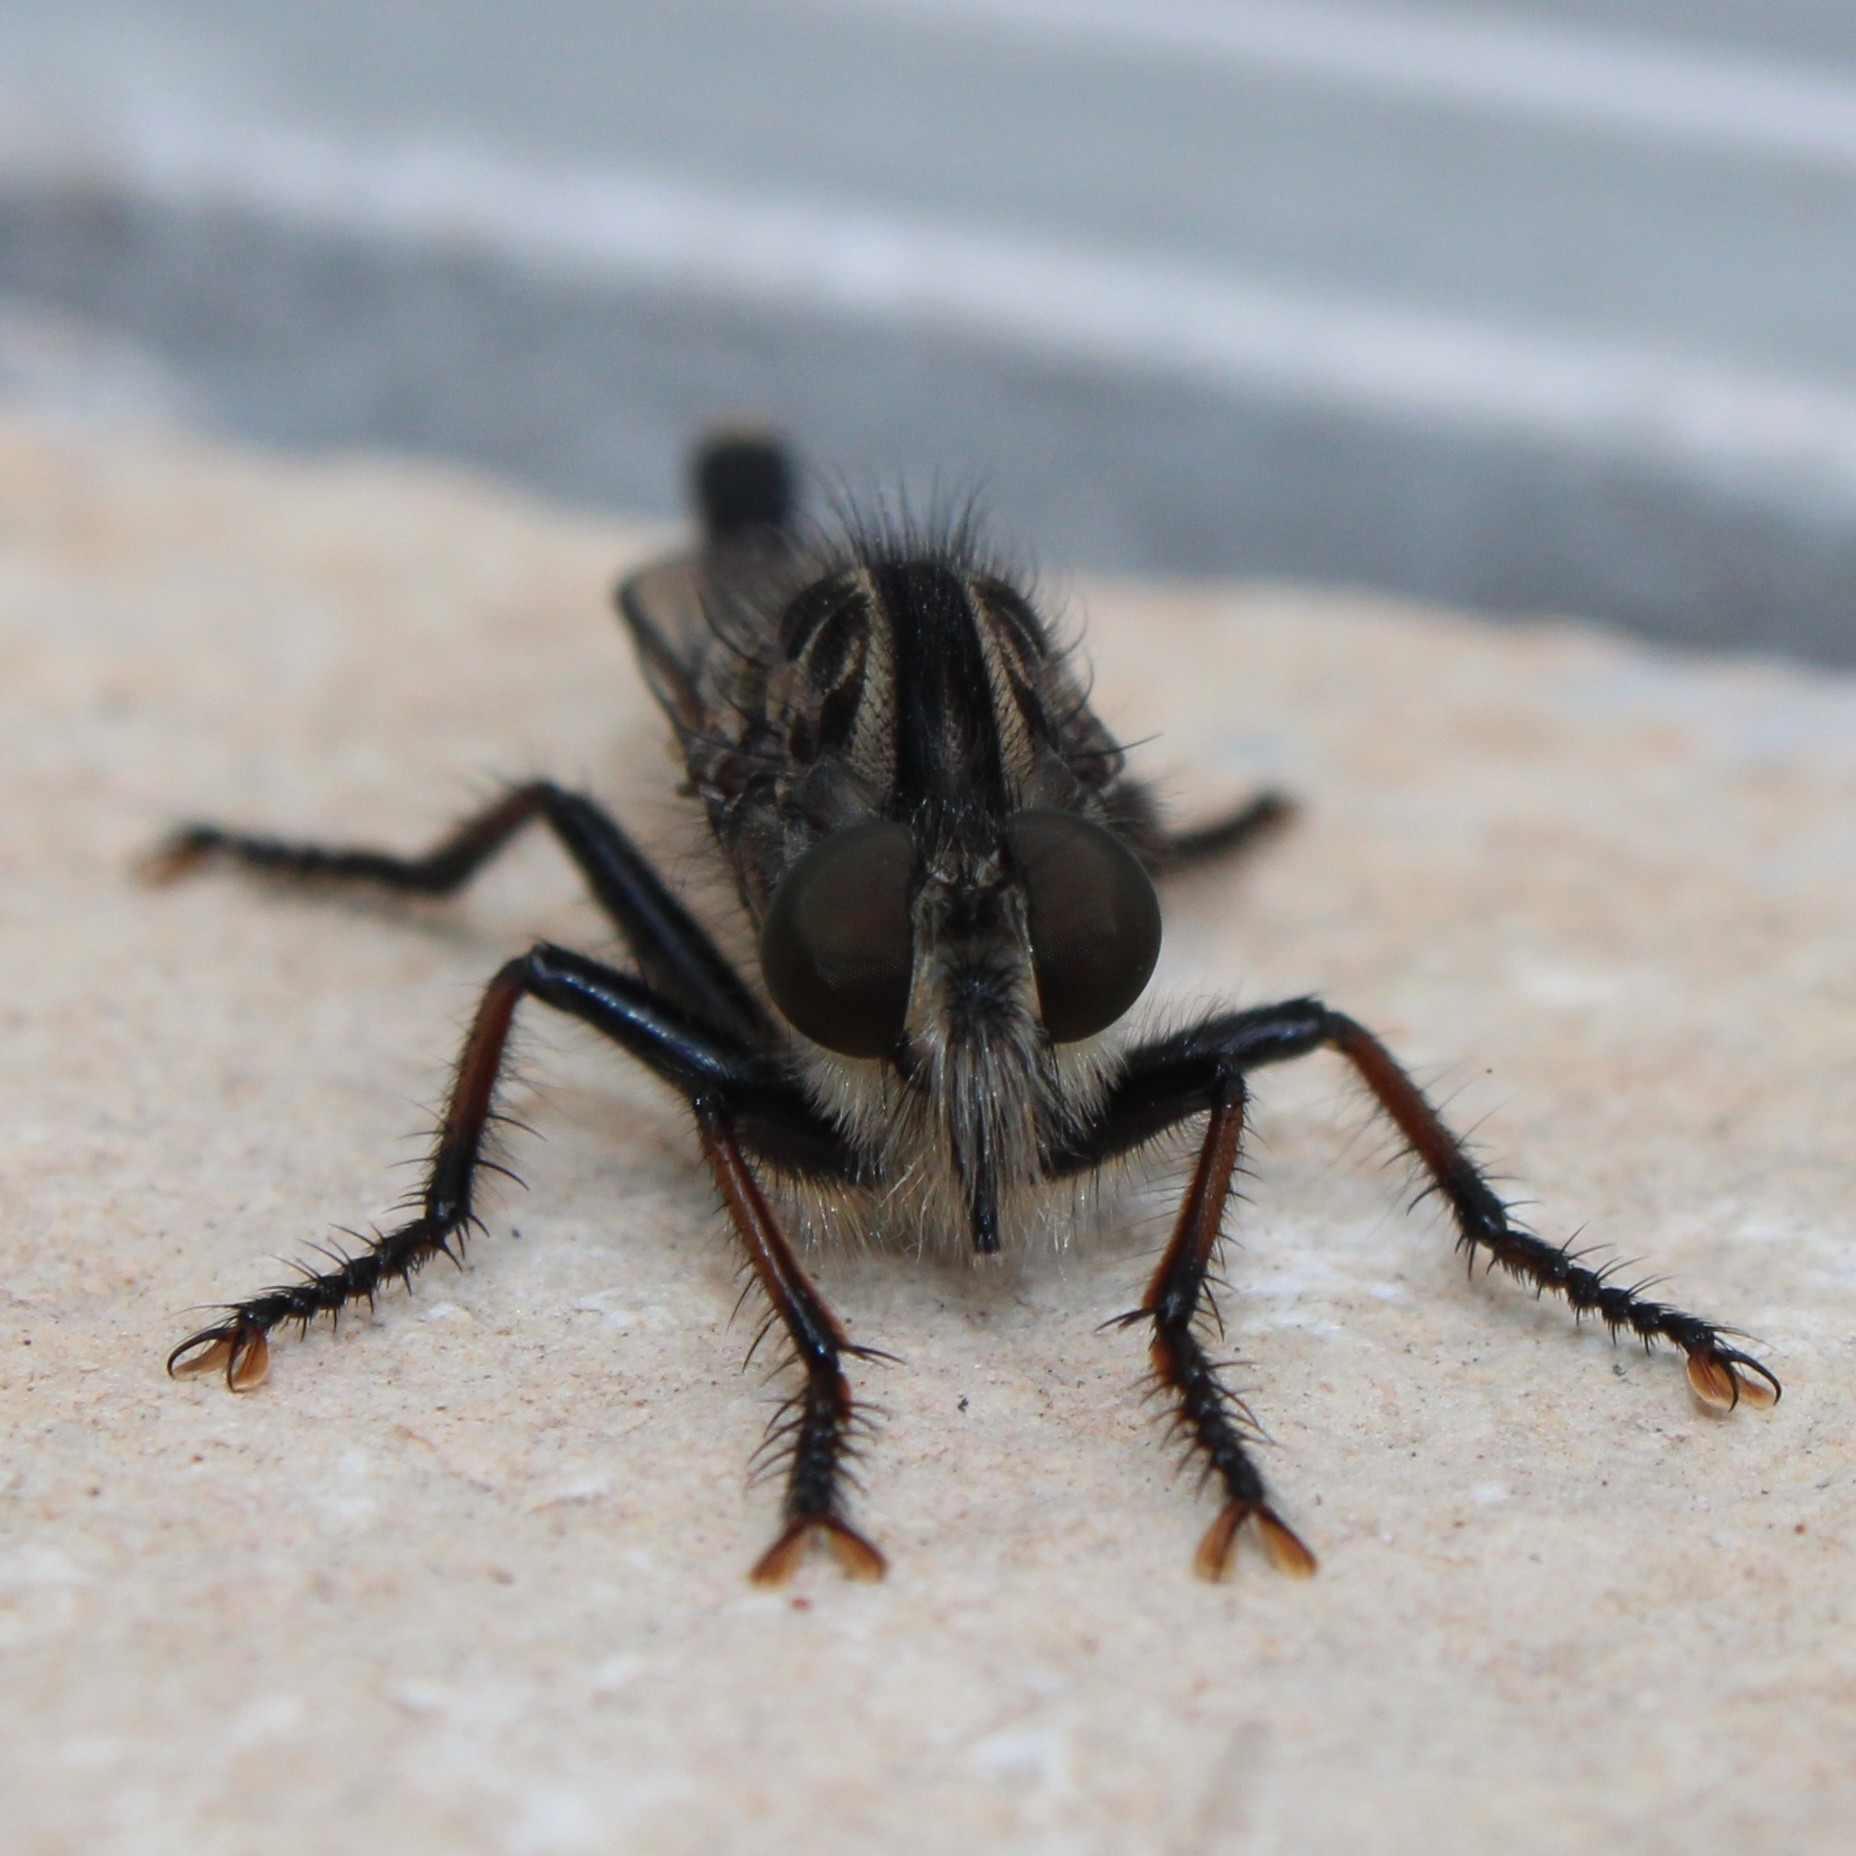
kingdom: Animalia
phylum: Arthropoda
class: Insecta
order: Diptera
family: Asilidae
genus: Efferia
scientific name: Efferia aestuans
